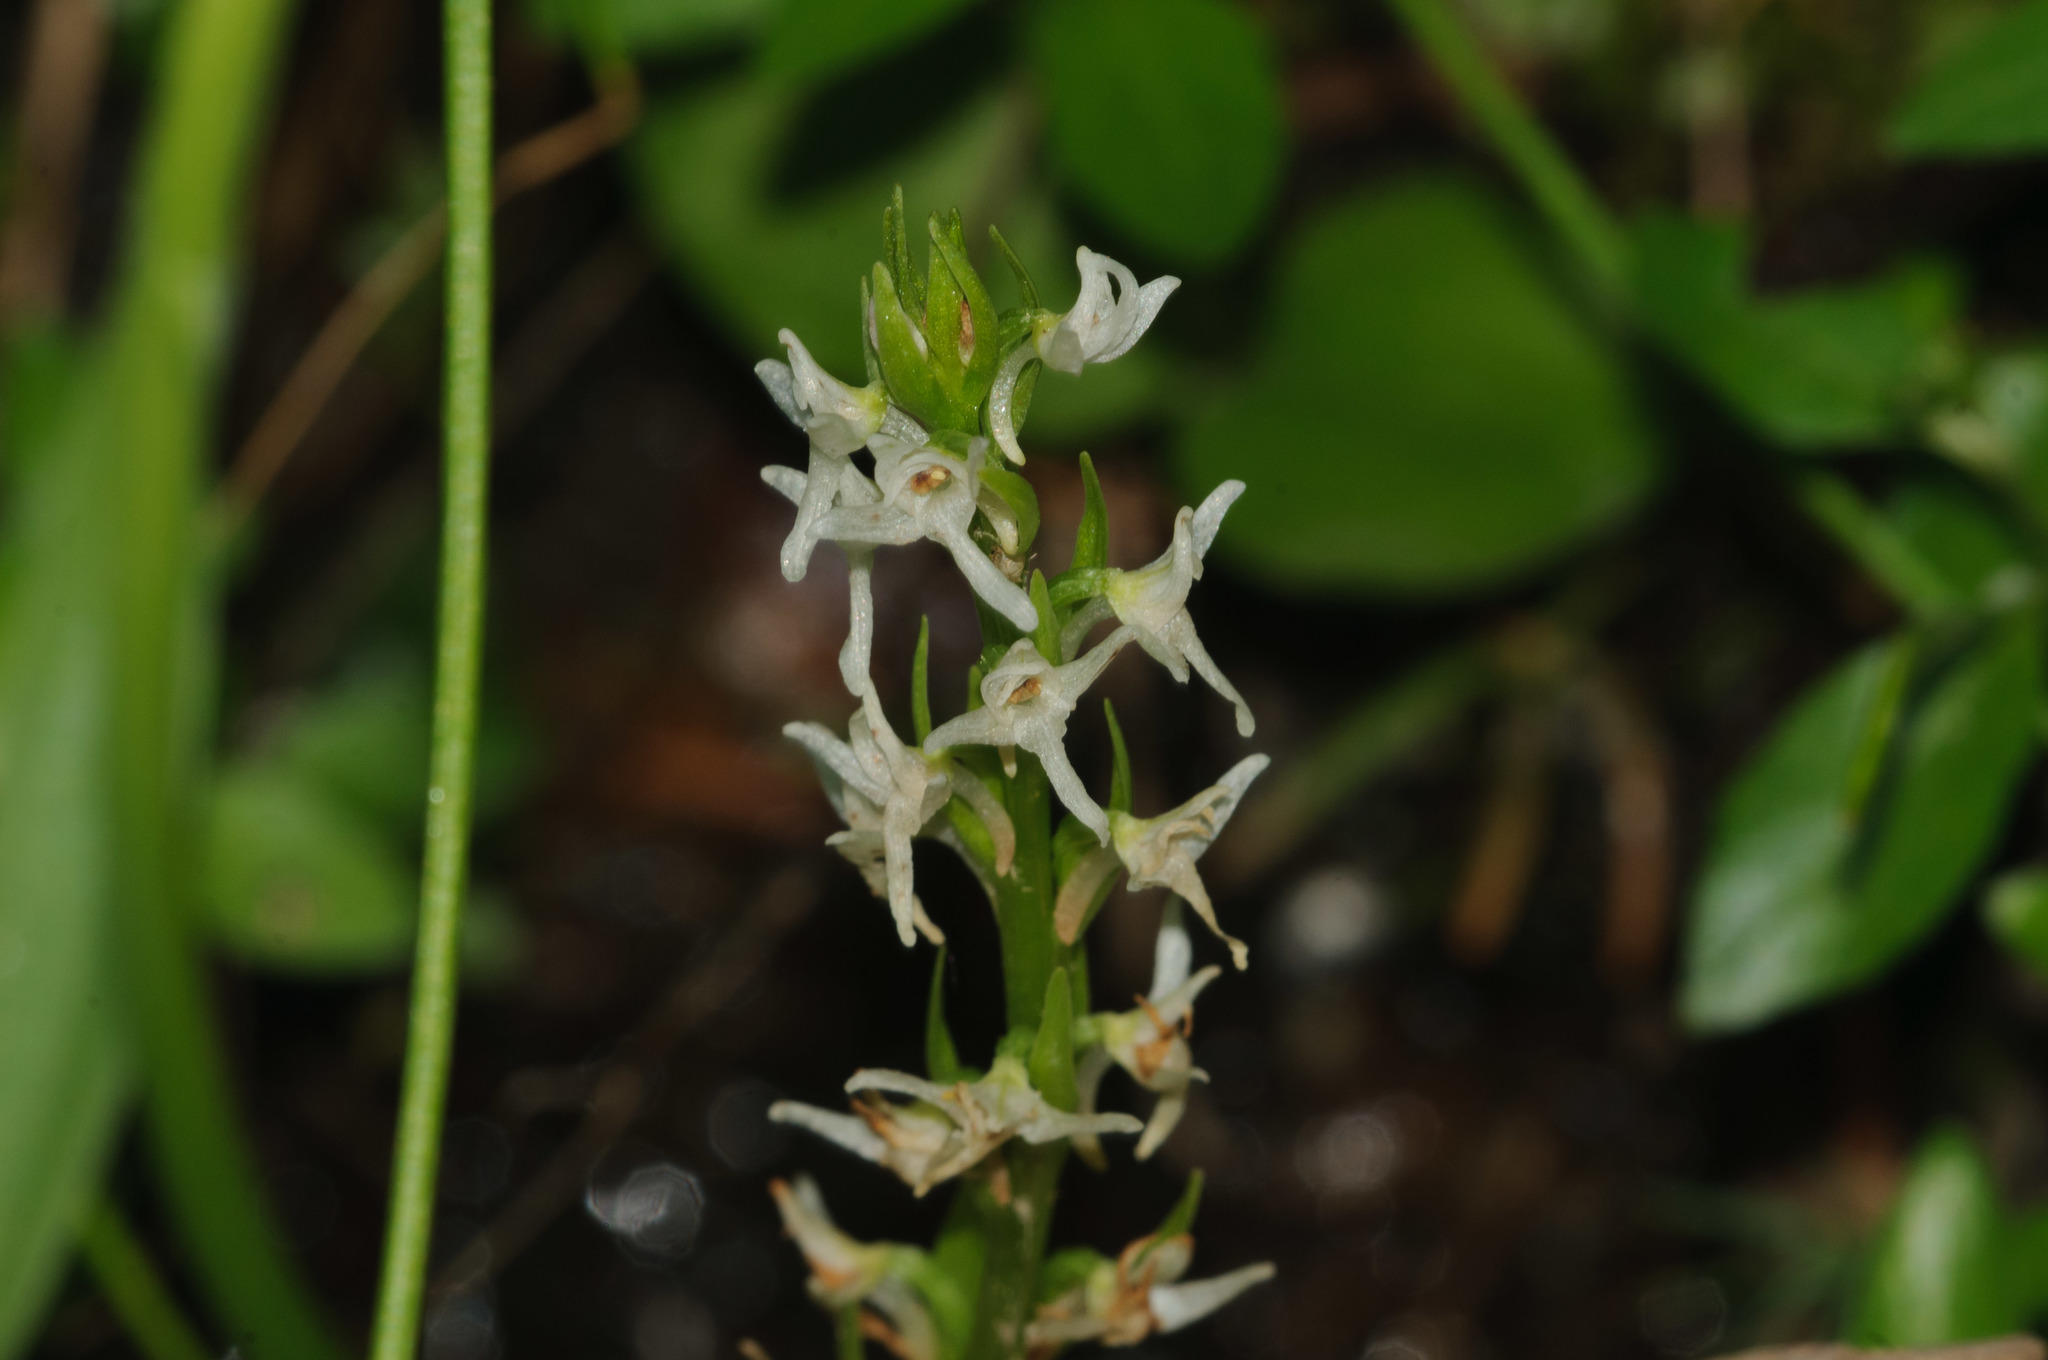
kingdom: Plantae
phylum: Tracheophyta
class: Liliopsida
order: Asparagales
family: Orchidaceae
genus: Platanthera
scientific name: Platanthera dilatata
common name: Bog candles
